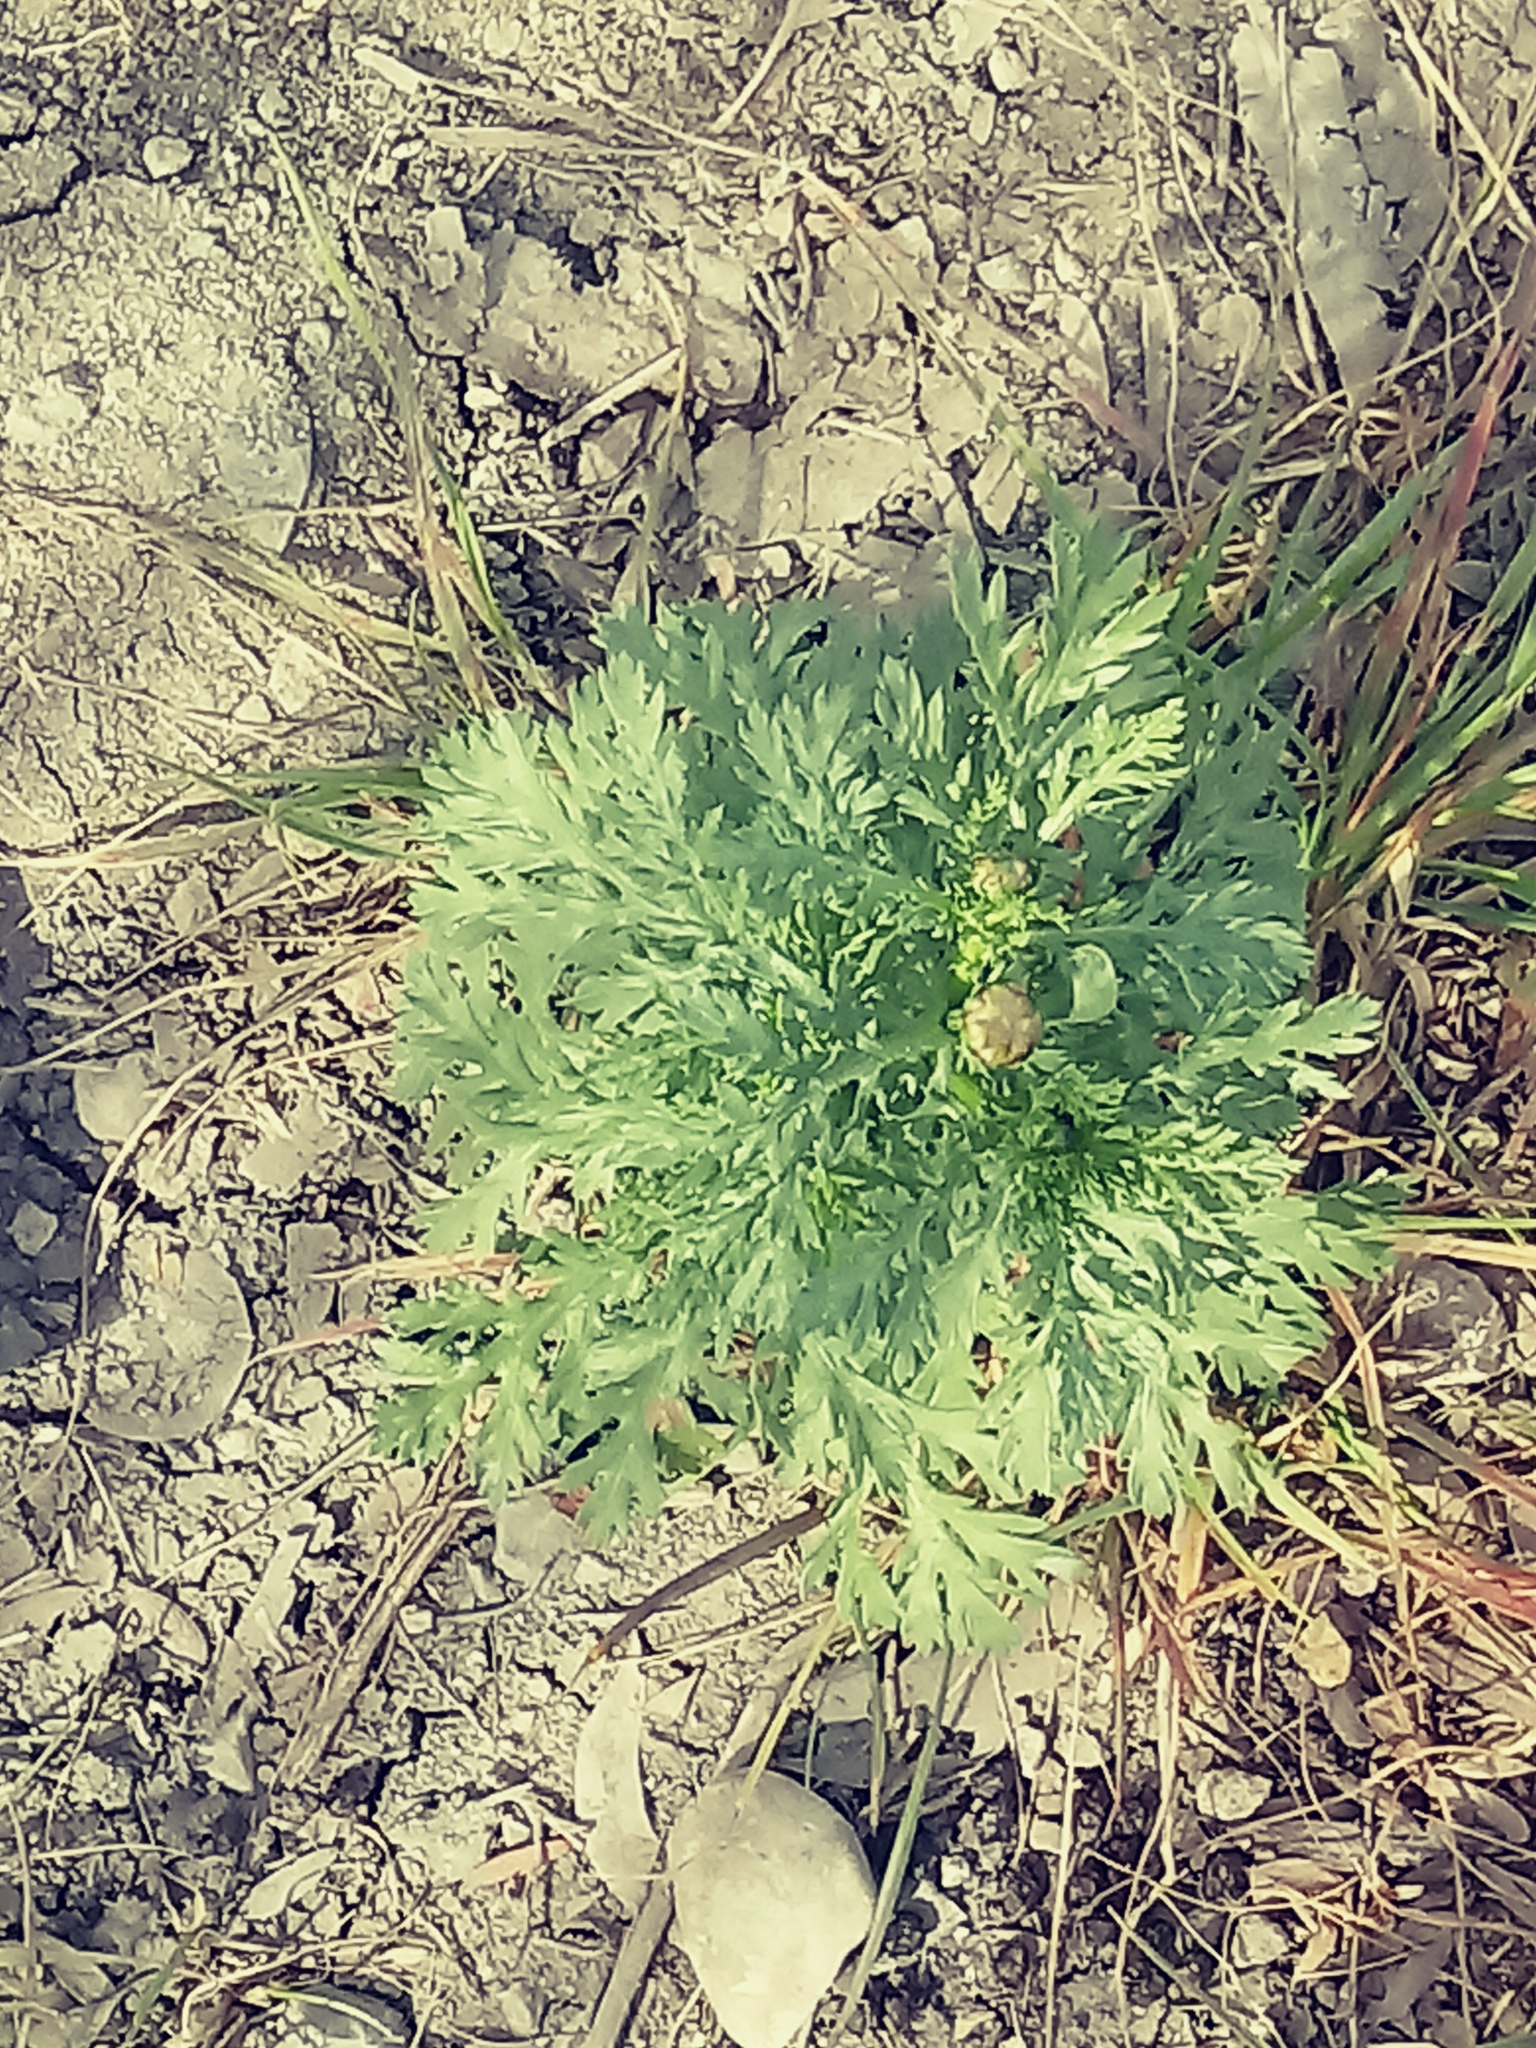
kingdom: Plantae
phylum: Tracheophyta
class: Magnoliopsida
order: Asterales
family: Asteraceae
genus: Glebionis
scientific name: Glebionis coronaria
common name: Crowndaisy
